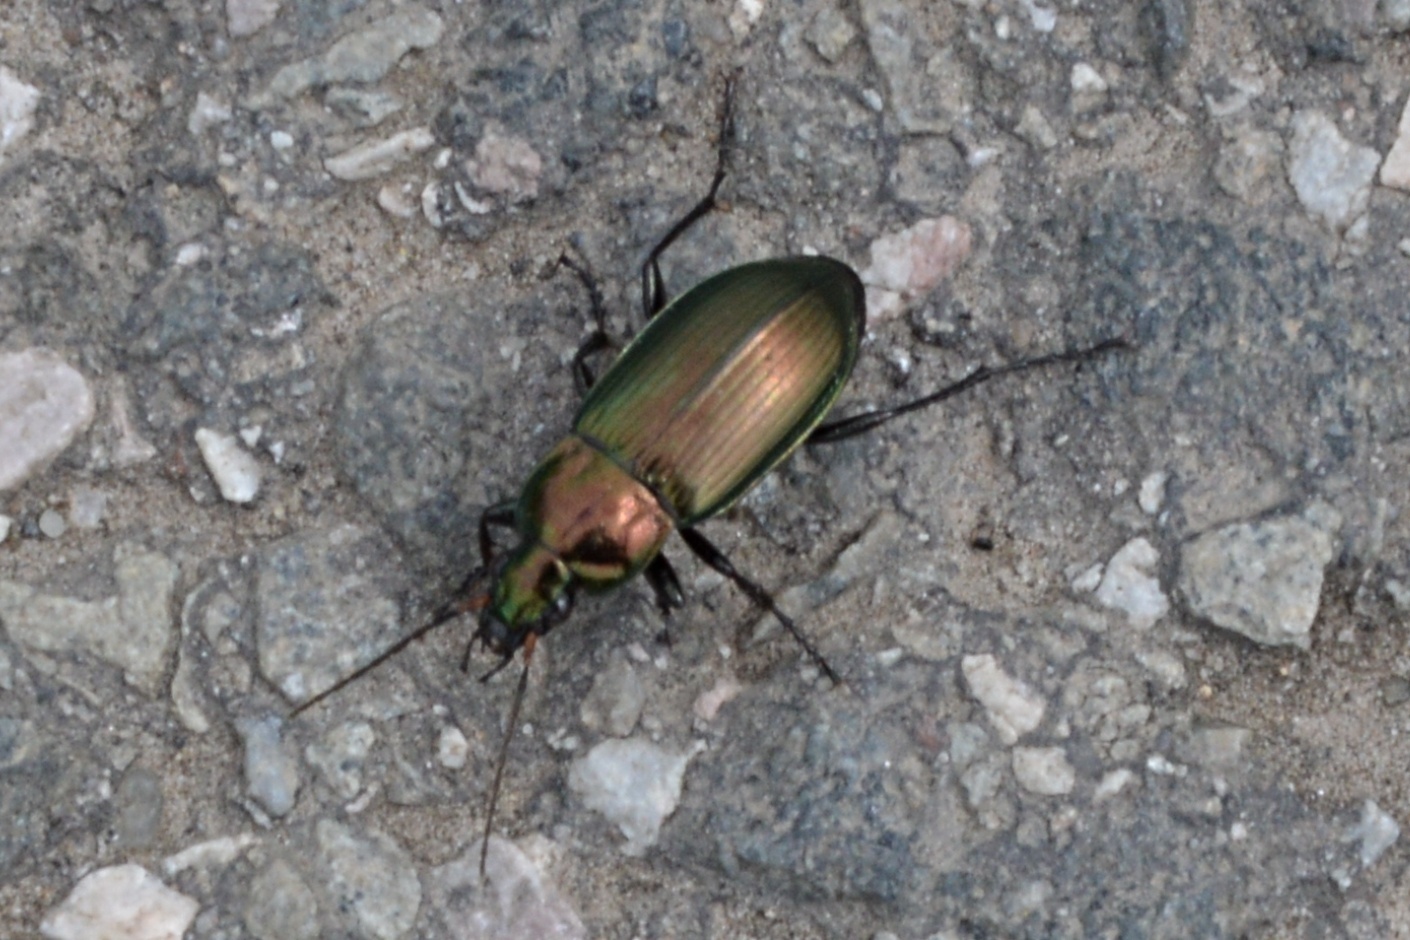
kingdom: Animalia
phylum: Arthropoda
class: Insecta
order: Coleoptera
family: Carabidae
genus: Poecilus
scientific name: Poecilus cupreus
